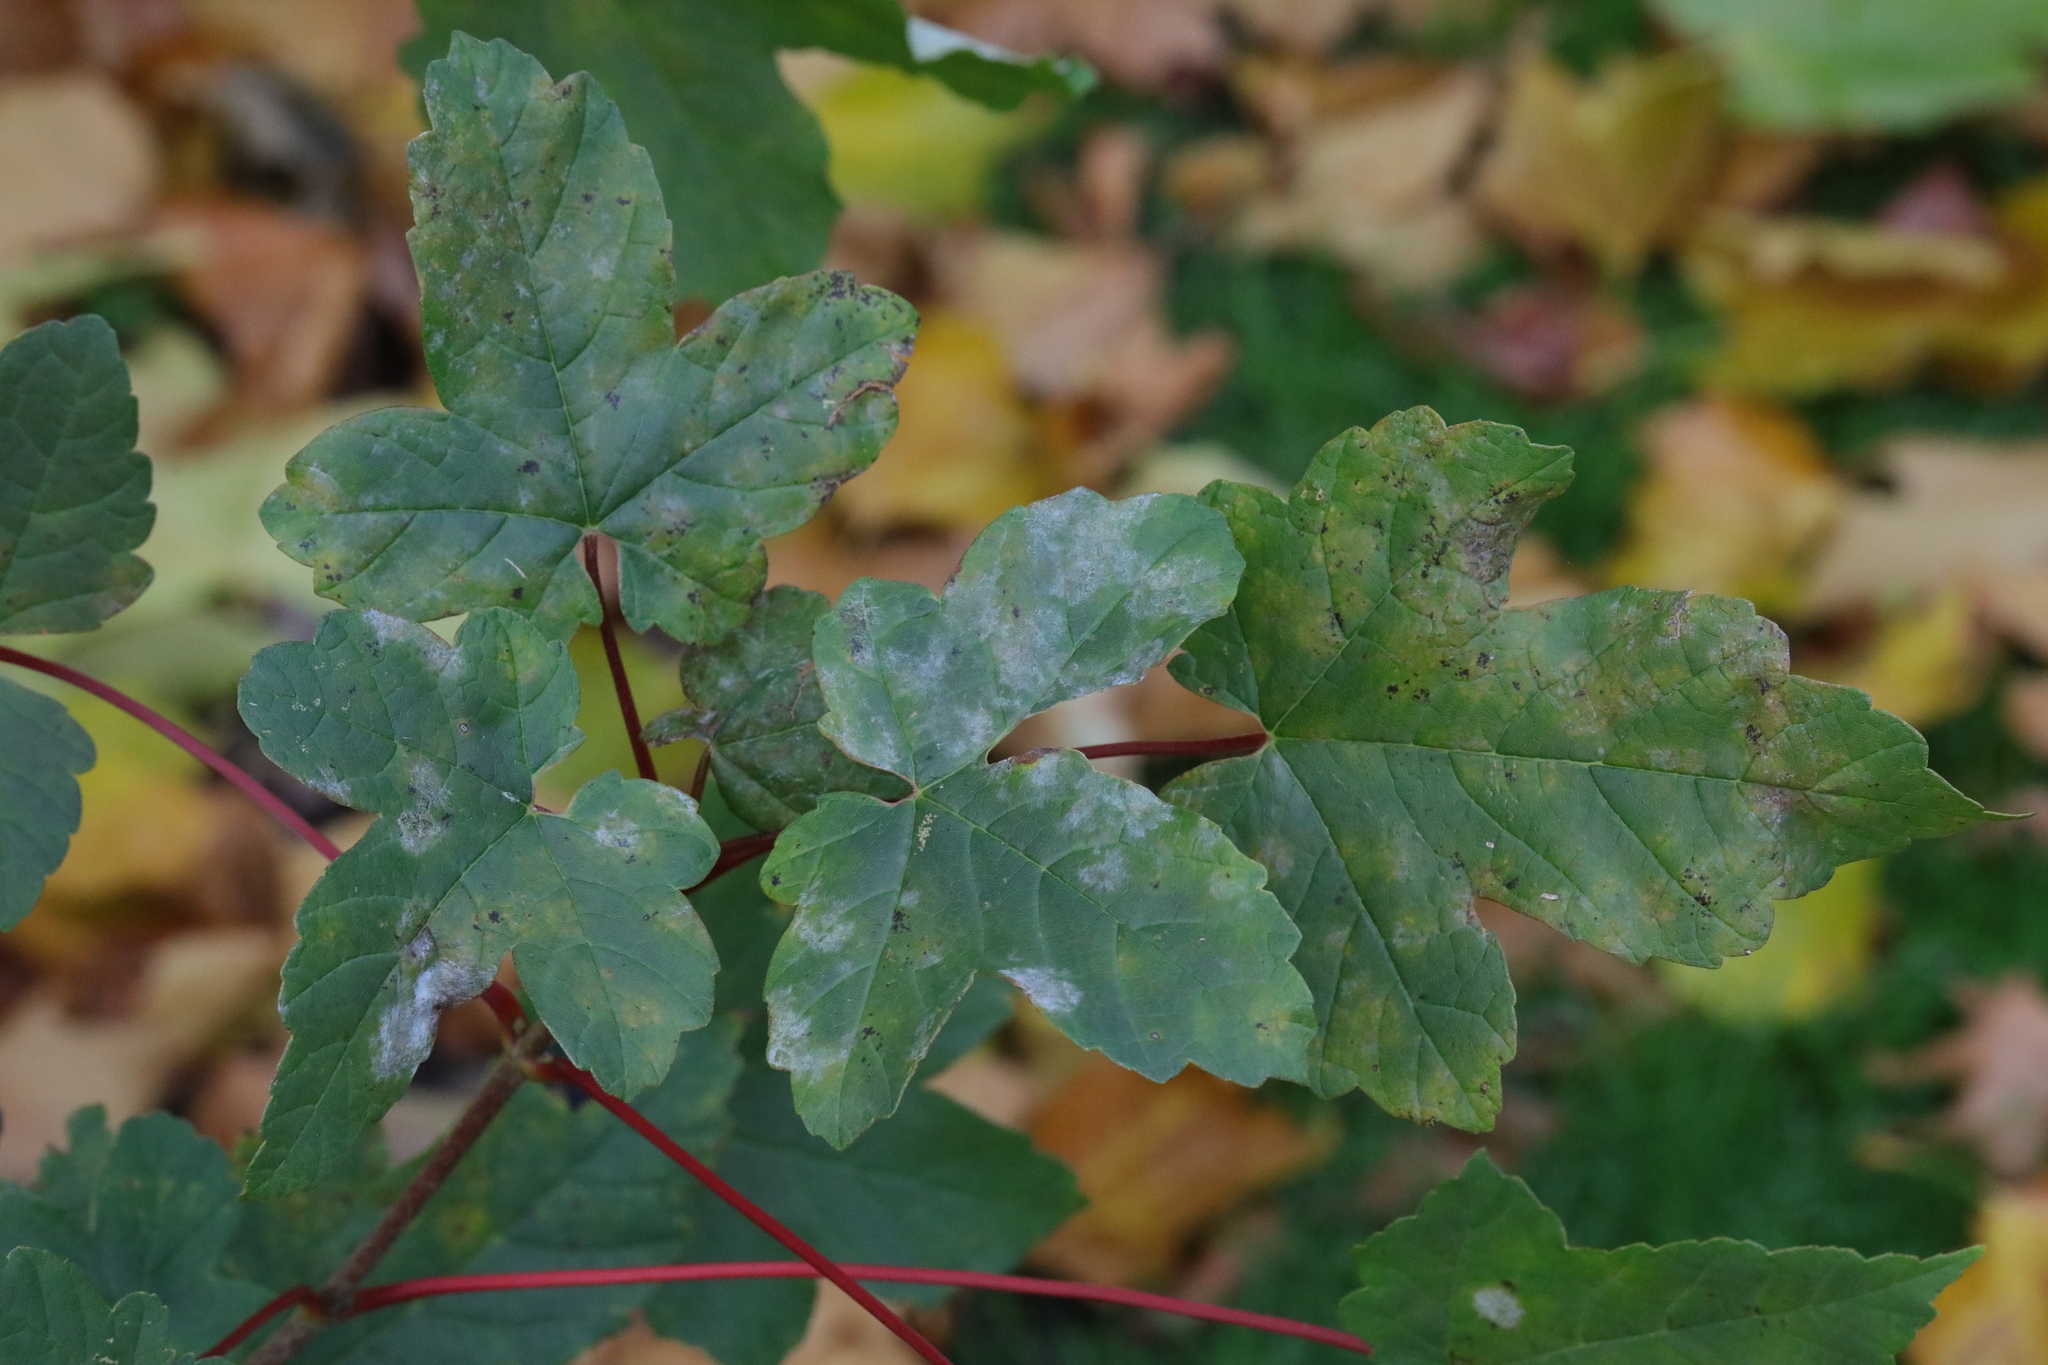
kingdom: Fungi
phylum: Ascomycota
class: Leotiomycetes
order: Helotiales
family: Erysiphaceae
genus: Sawadaea
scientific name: Sawadaea bicornis
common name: Maple mildew
